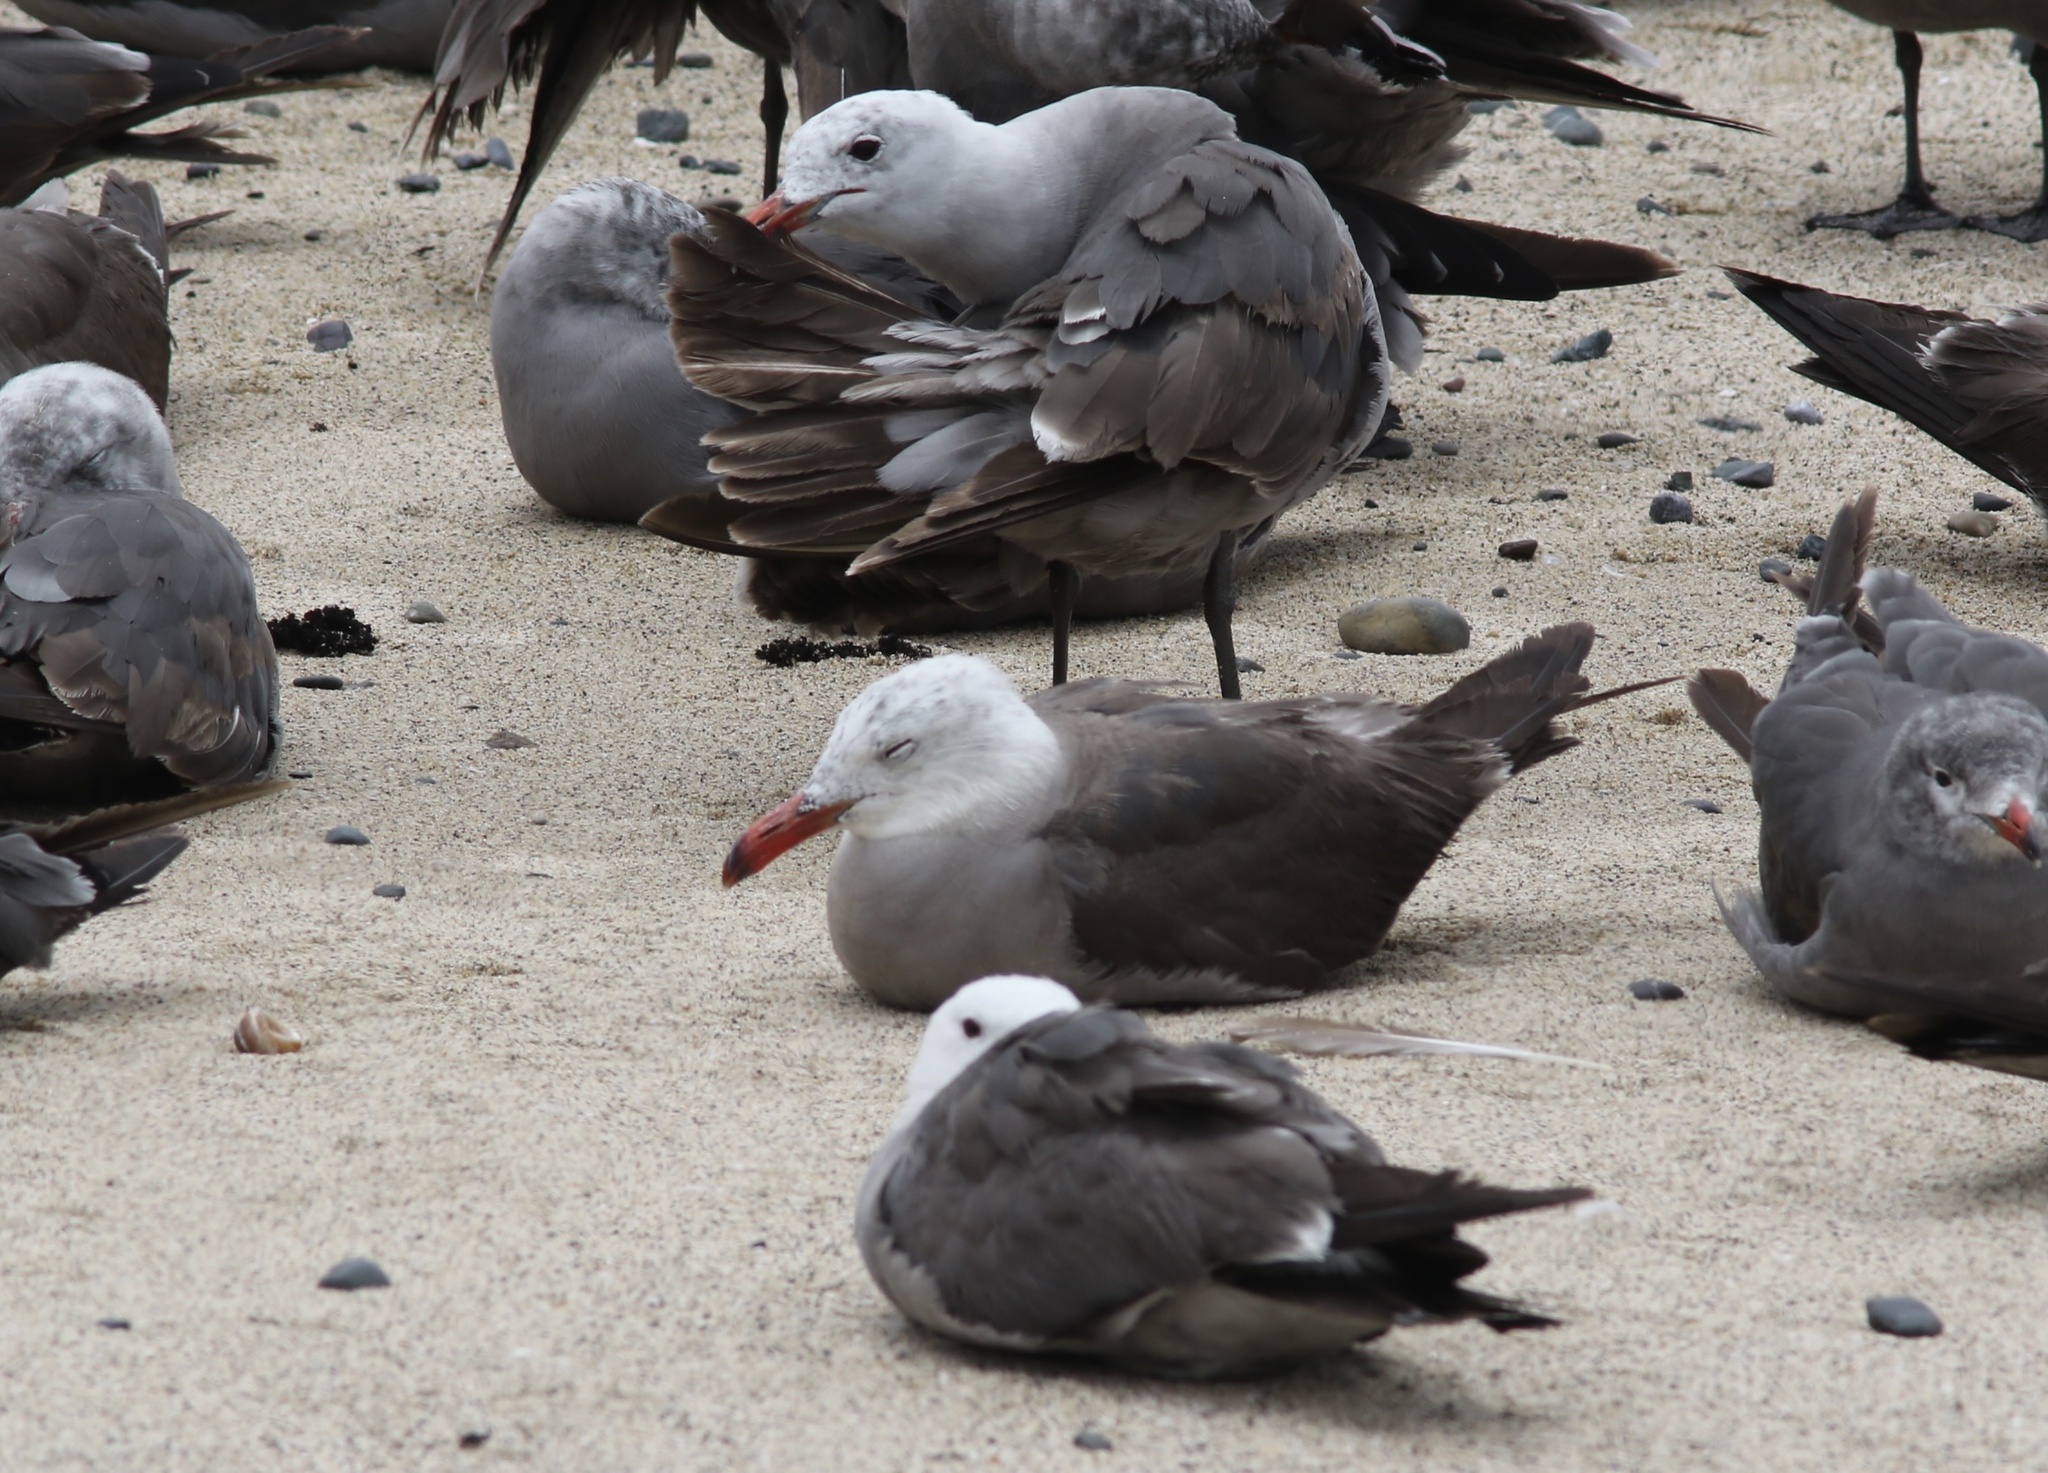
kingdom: Animalia
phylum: Chordata
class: Aves
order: Charadriiformes
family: Laridae
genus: Larus
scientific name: Larus heermanni
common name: Heermann's gull
